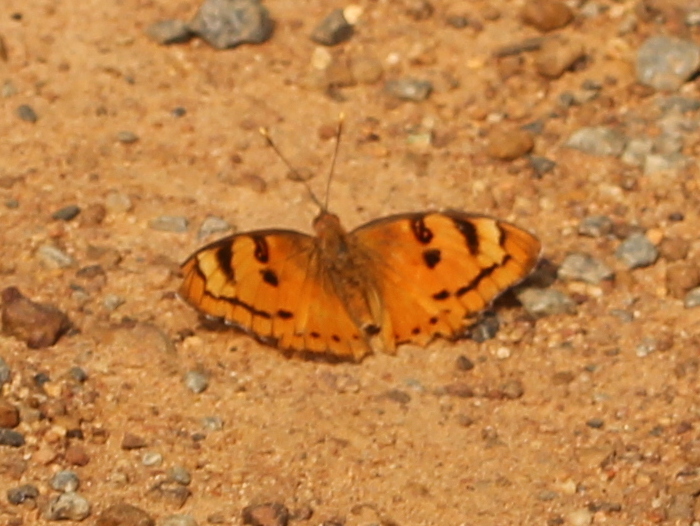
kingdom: Animalia
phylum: Arthropoda
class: Insecta
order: Lepidoptera
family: Nymphalidae
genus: Euthalia
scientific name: Euthalia nais
